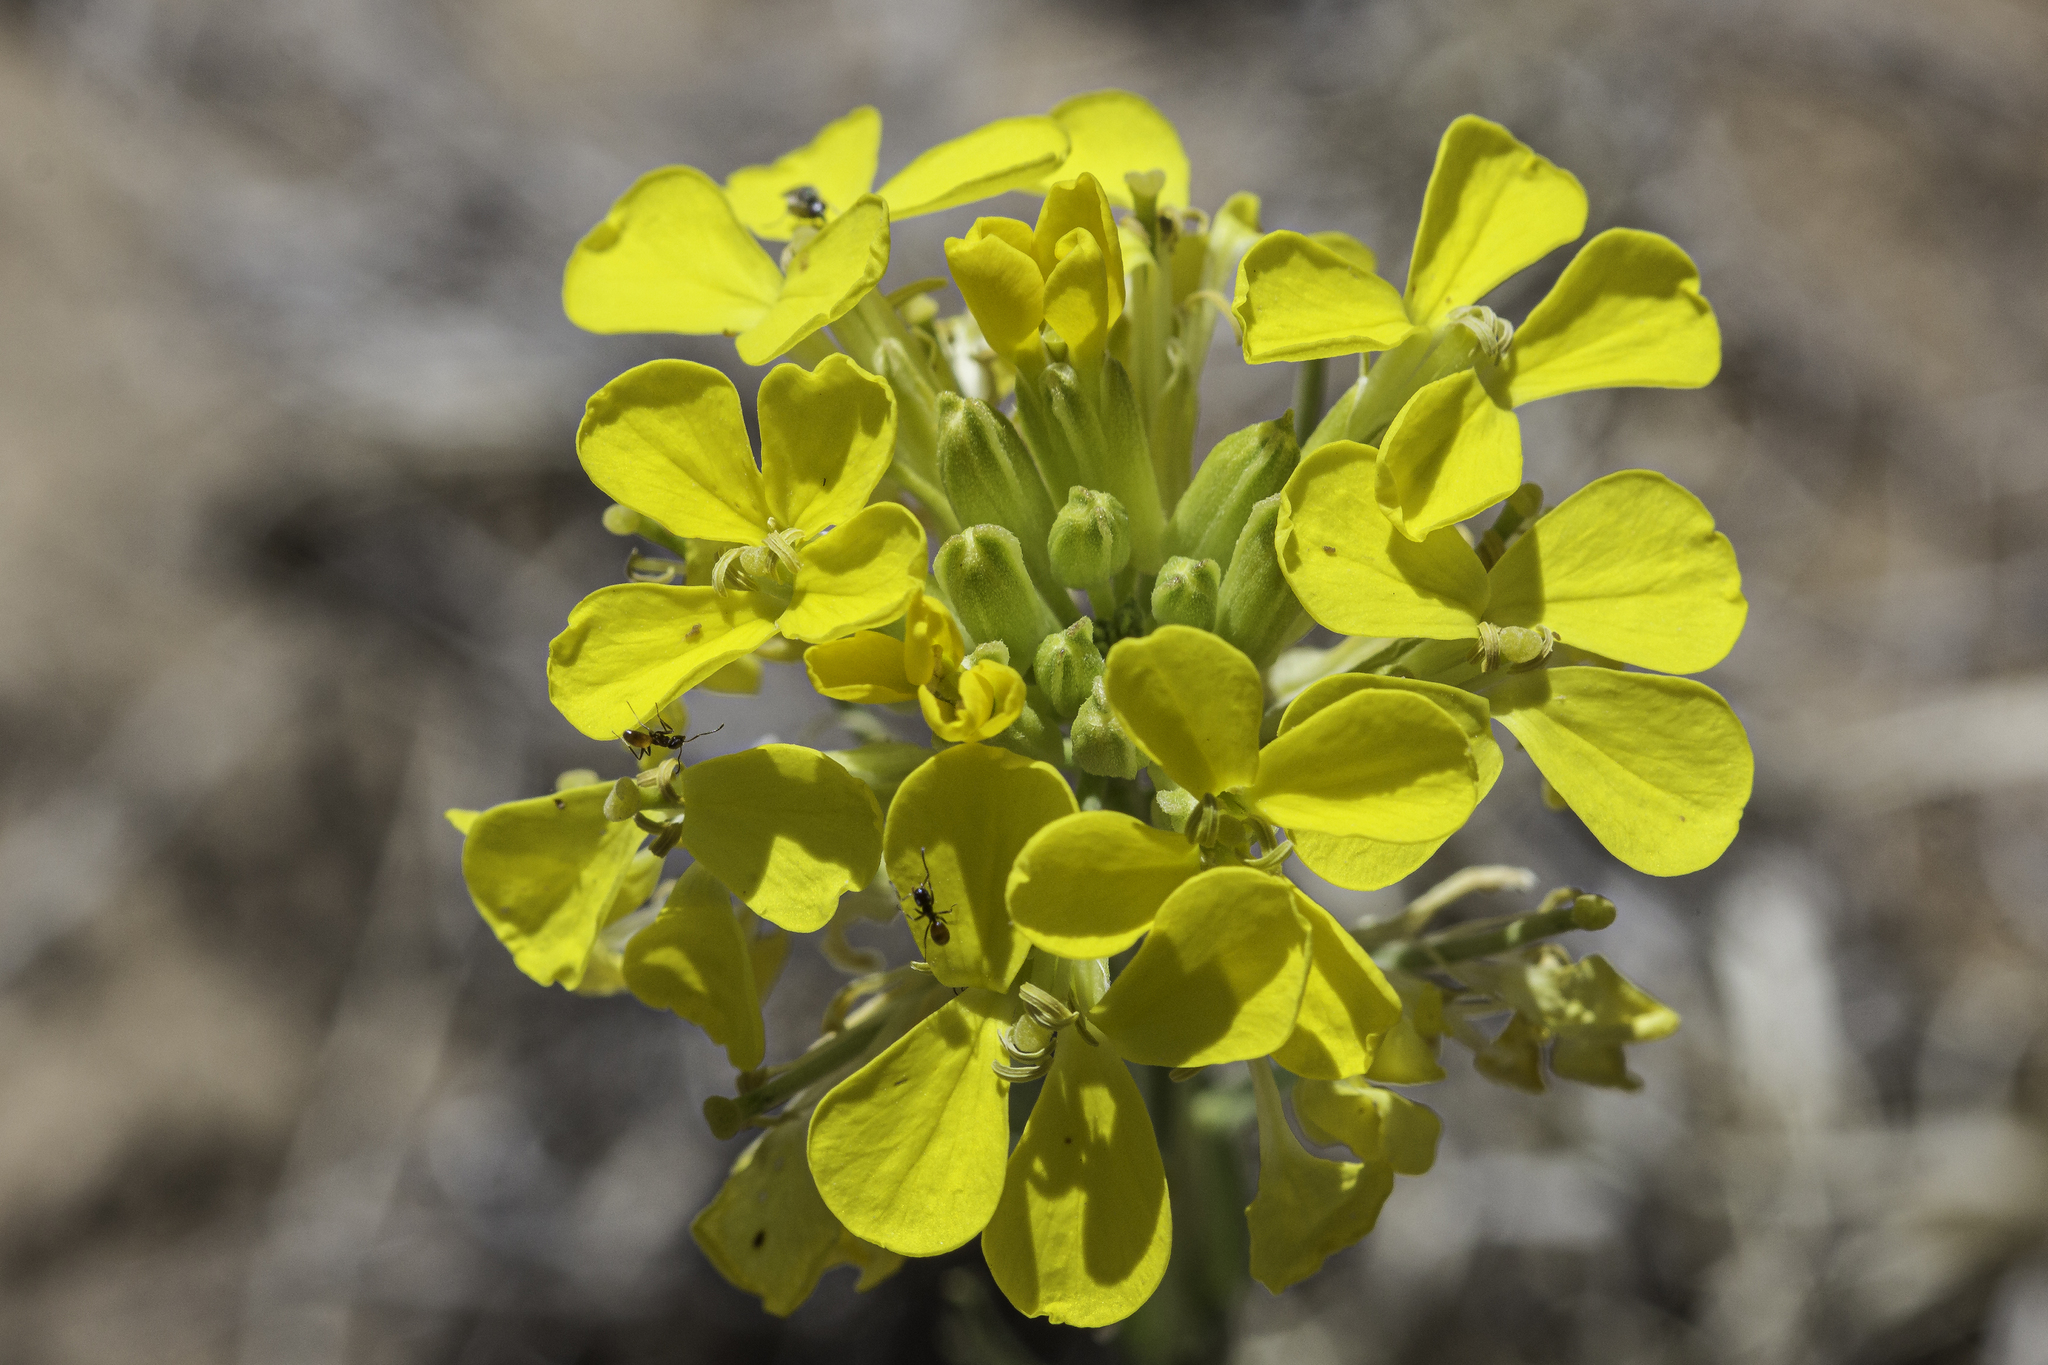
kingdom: Plantae
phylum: Tracheophyta
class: Magnoliopsida
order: Brassicales
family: Brassicaceae
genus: Erysimum
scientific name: Erysimum capitatum
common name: Western wallflower
